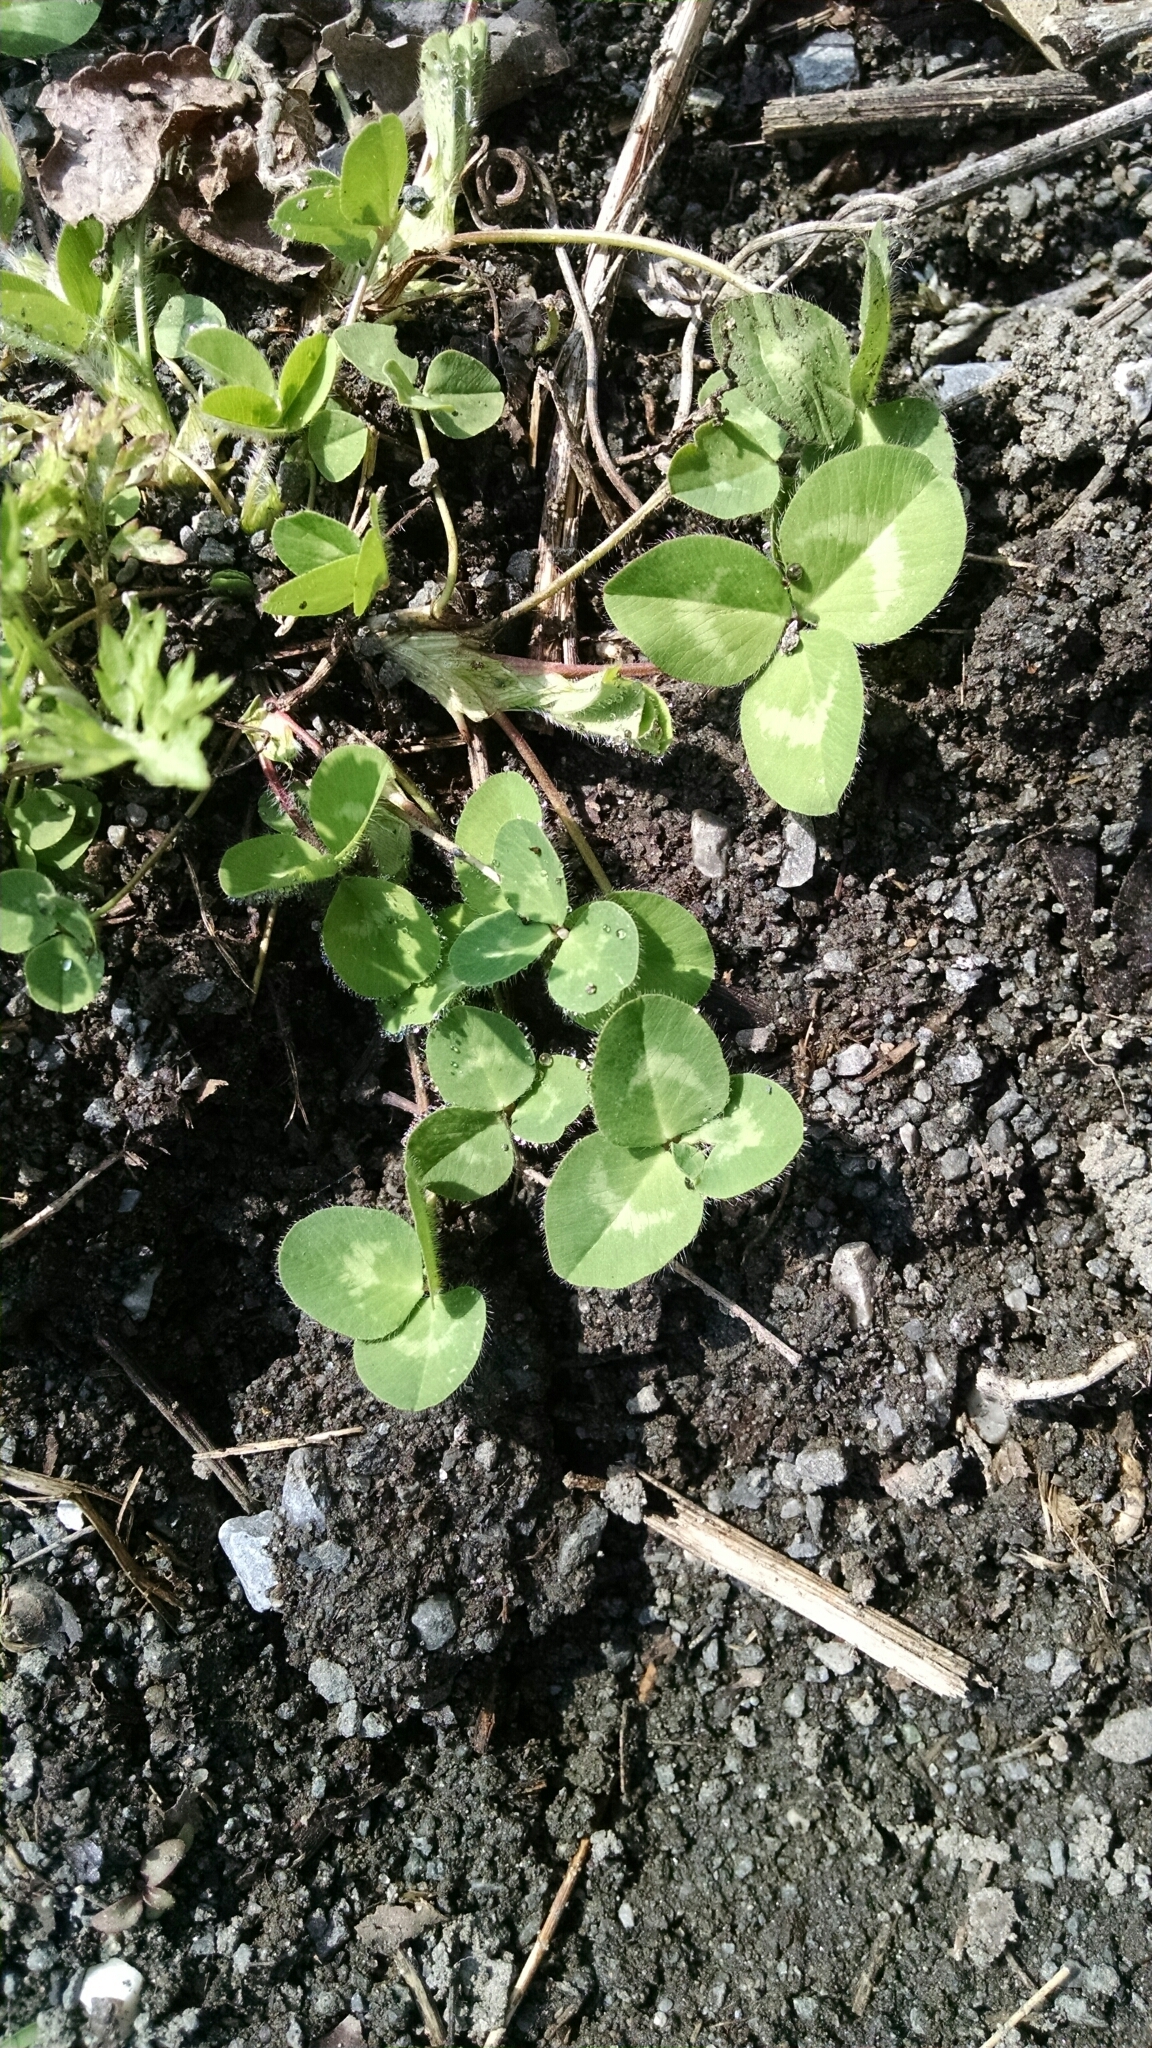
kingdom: Plantae
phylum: Tracheophyta
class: Magnoliopsida
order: Fabales
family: Fabaceae
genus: Trifolium
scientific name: Trifolium pratense
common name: Red clover
